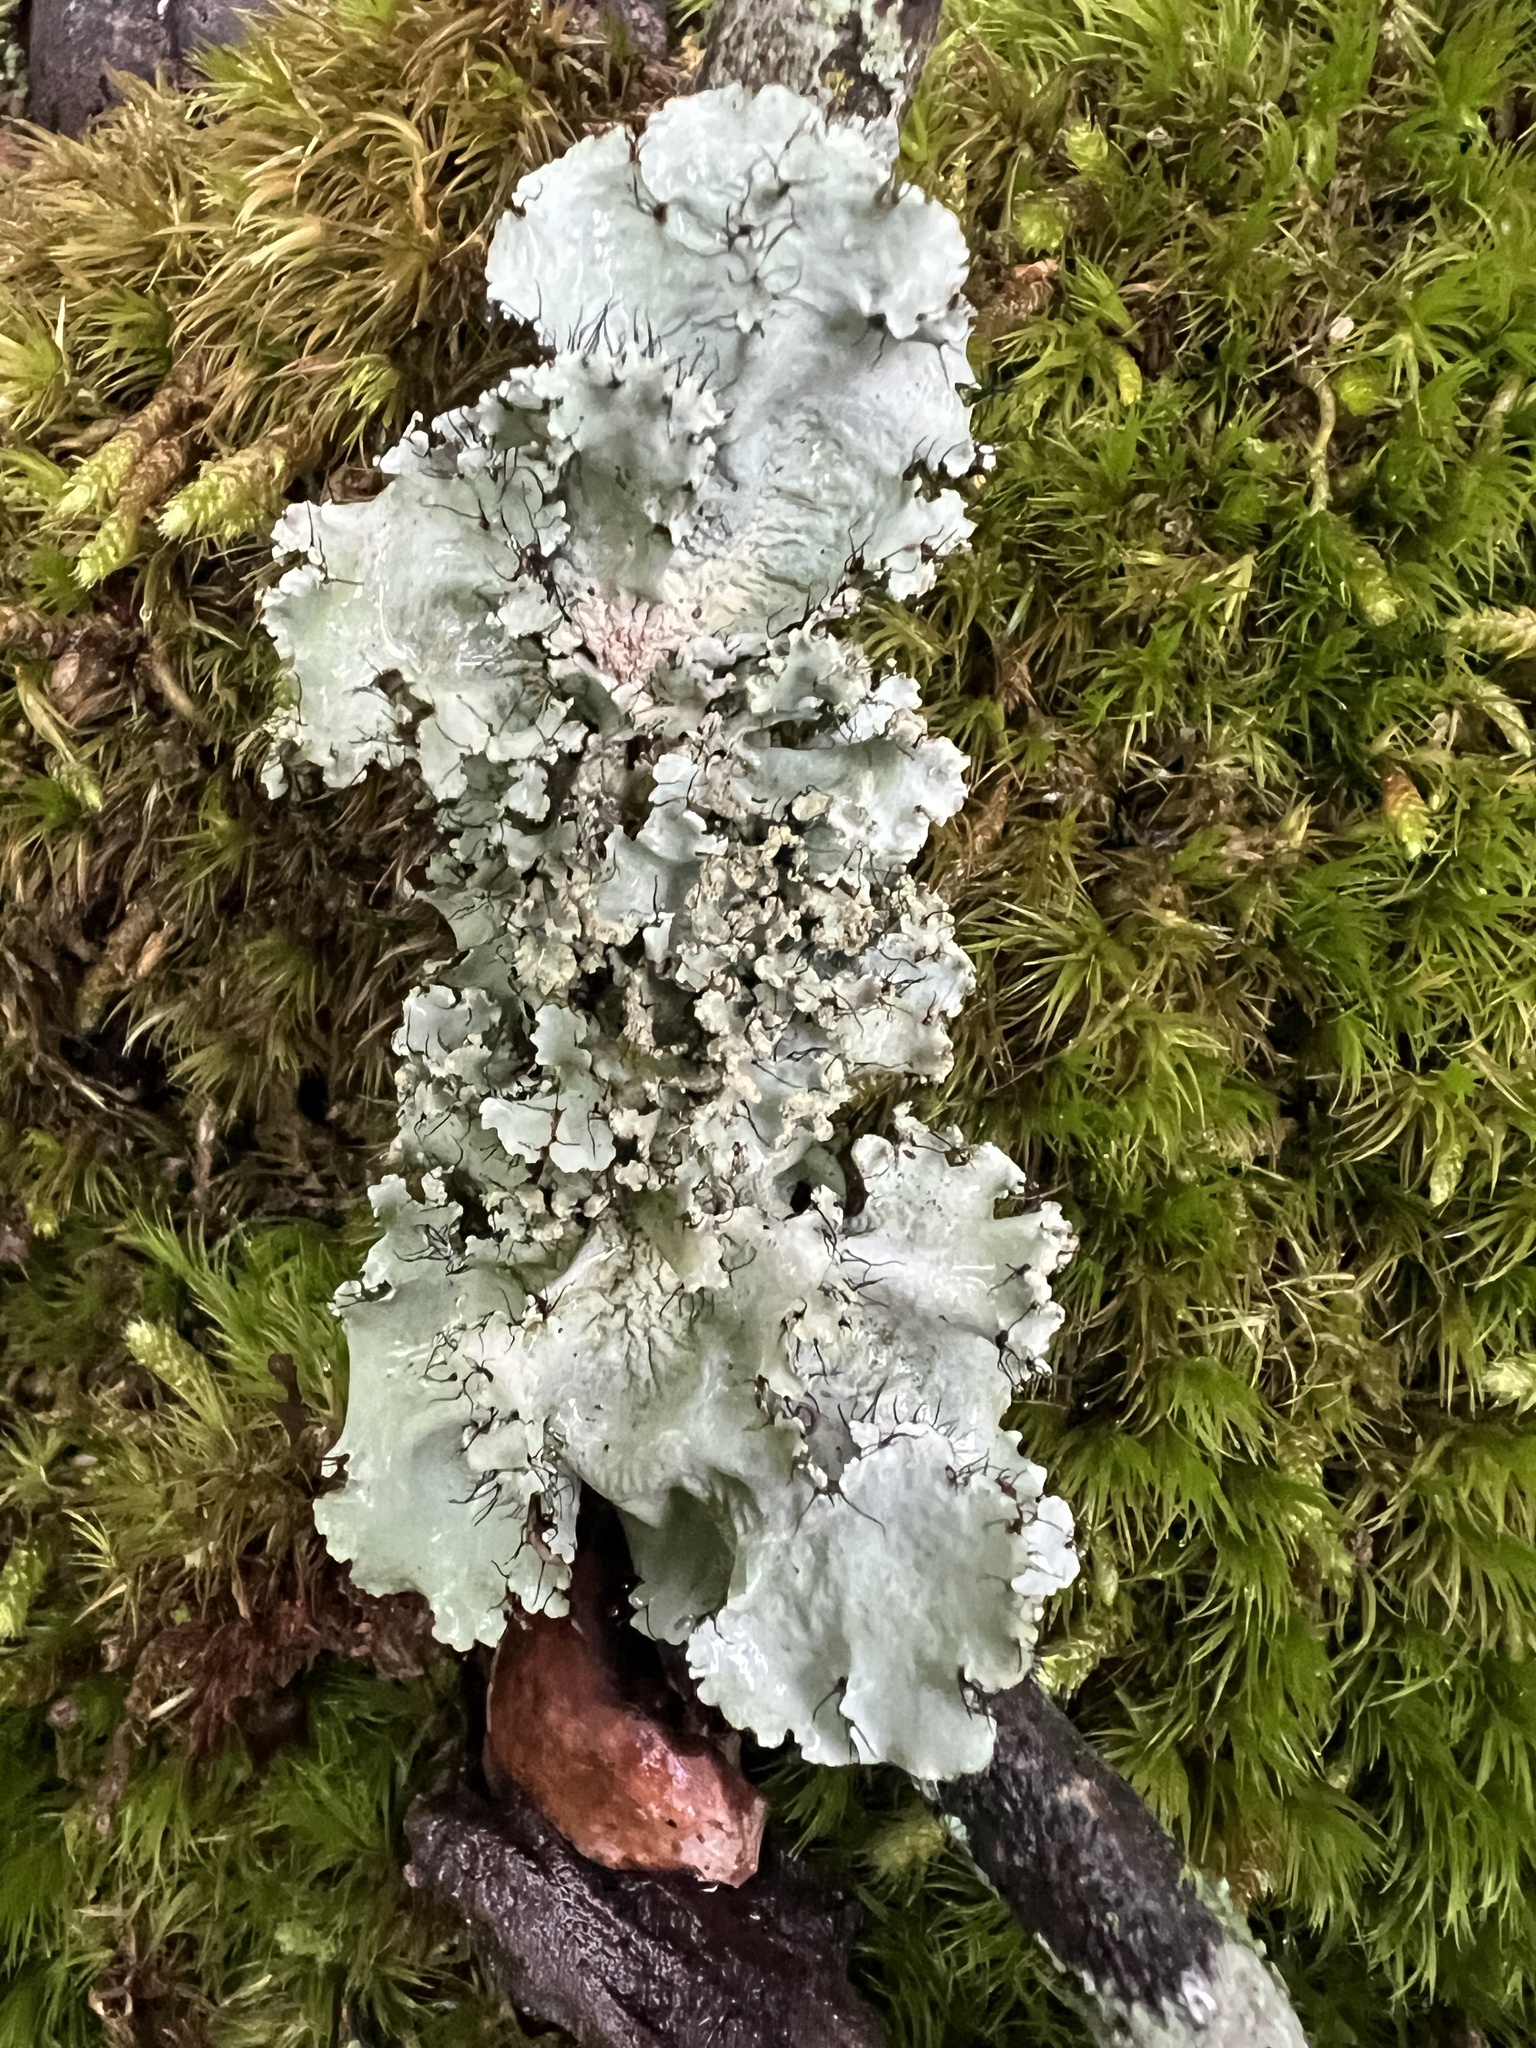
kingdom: Fungi
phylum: Ascomycota
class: Lecanoromycetes
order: Lecanorales
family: Parmeliaceae
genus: Parmotrema
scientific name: Parmotrema hypotropum
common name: Powdered ruffle lichen
